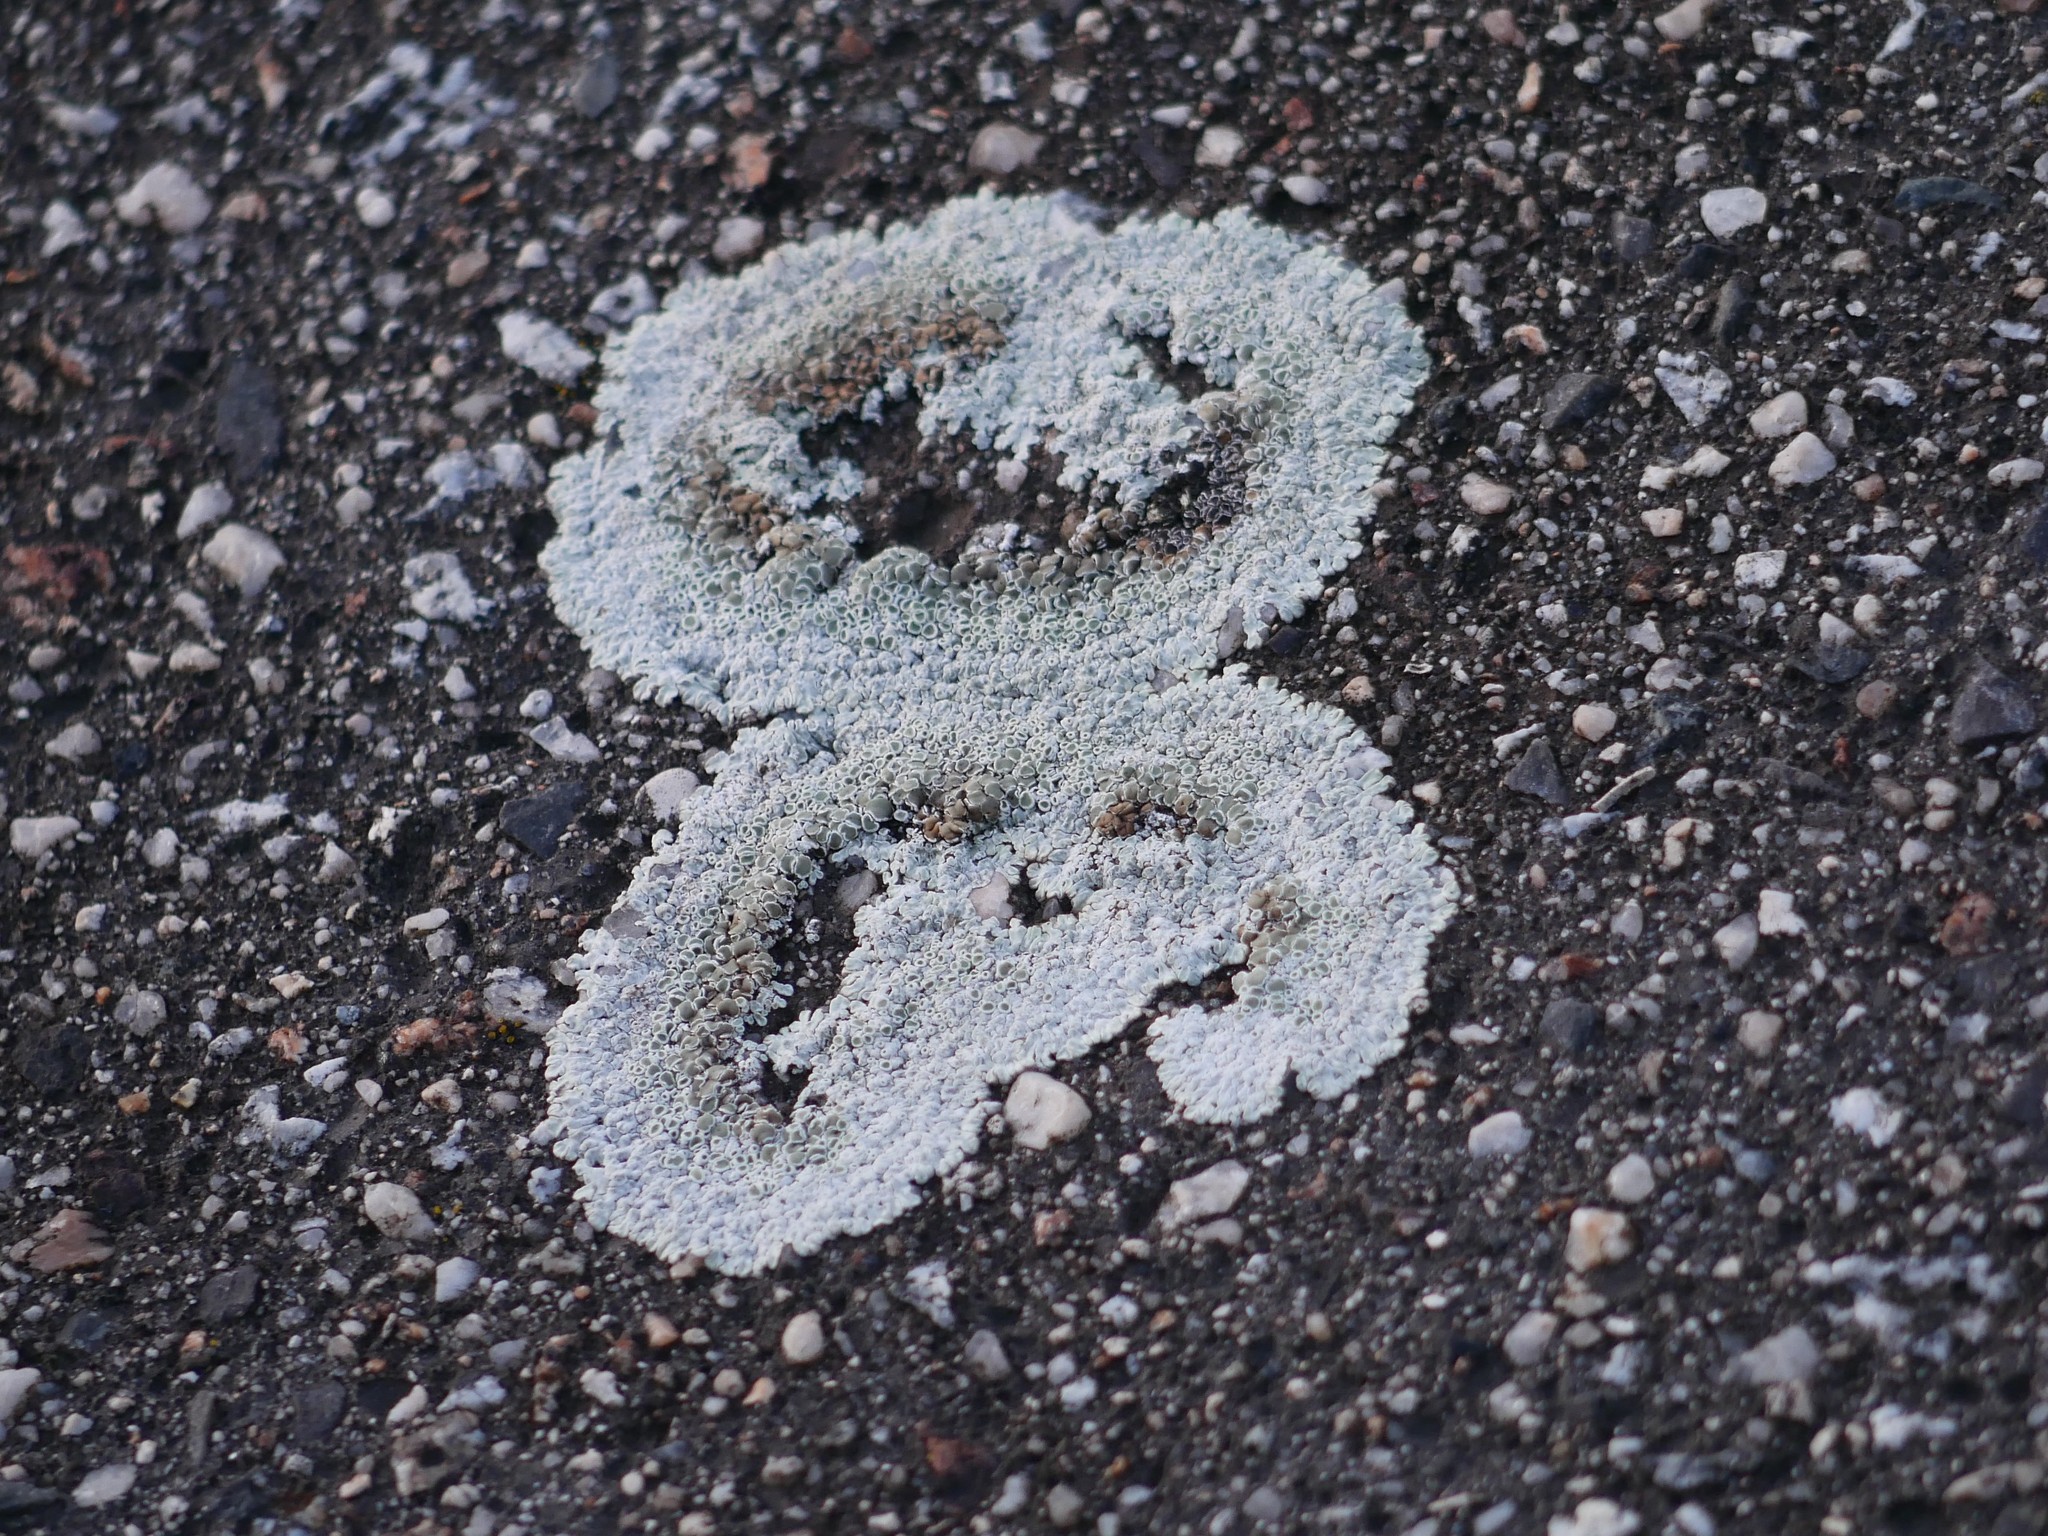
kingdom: Fungi
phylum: Ascomycota
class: Lecanoromycetes
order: Lecanorales
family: Lecanoraceae
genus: Protoparmeliopsis
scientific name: Protoparmeliopsis muralis
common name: Stonewall rim lichen
